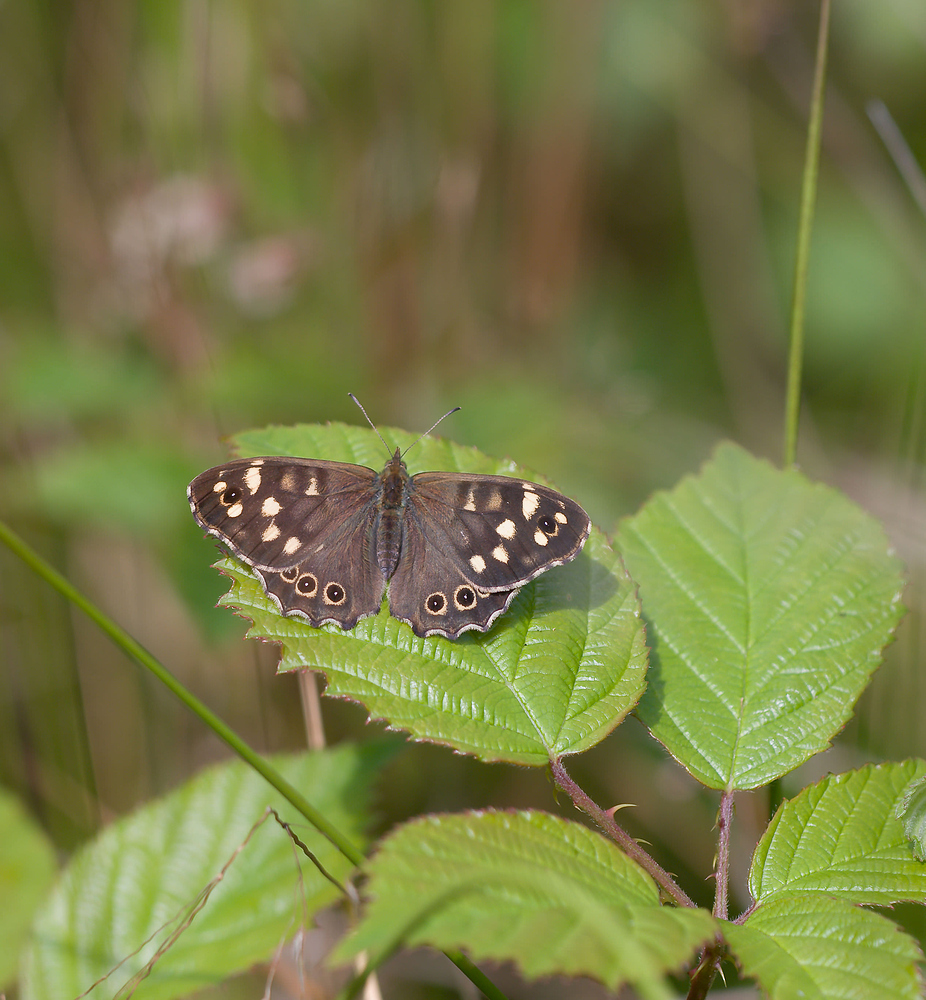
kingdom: Animalia
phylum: Arthropoda
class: Insecta
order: Lepidoptera
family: Nymphalidae
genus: Pararge
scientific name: Pararge aegeria
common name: Speckled wood
